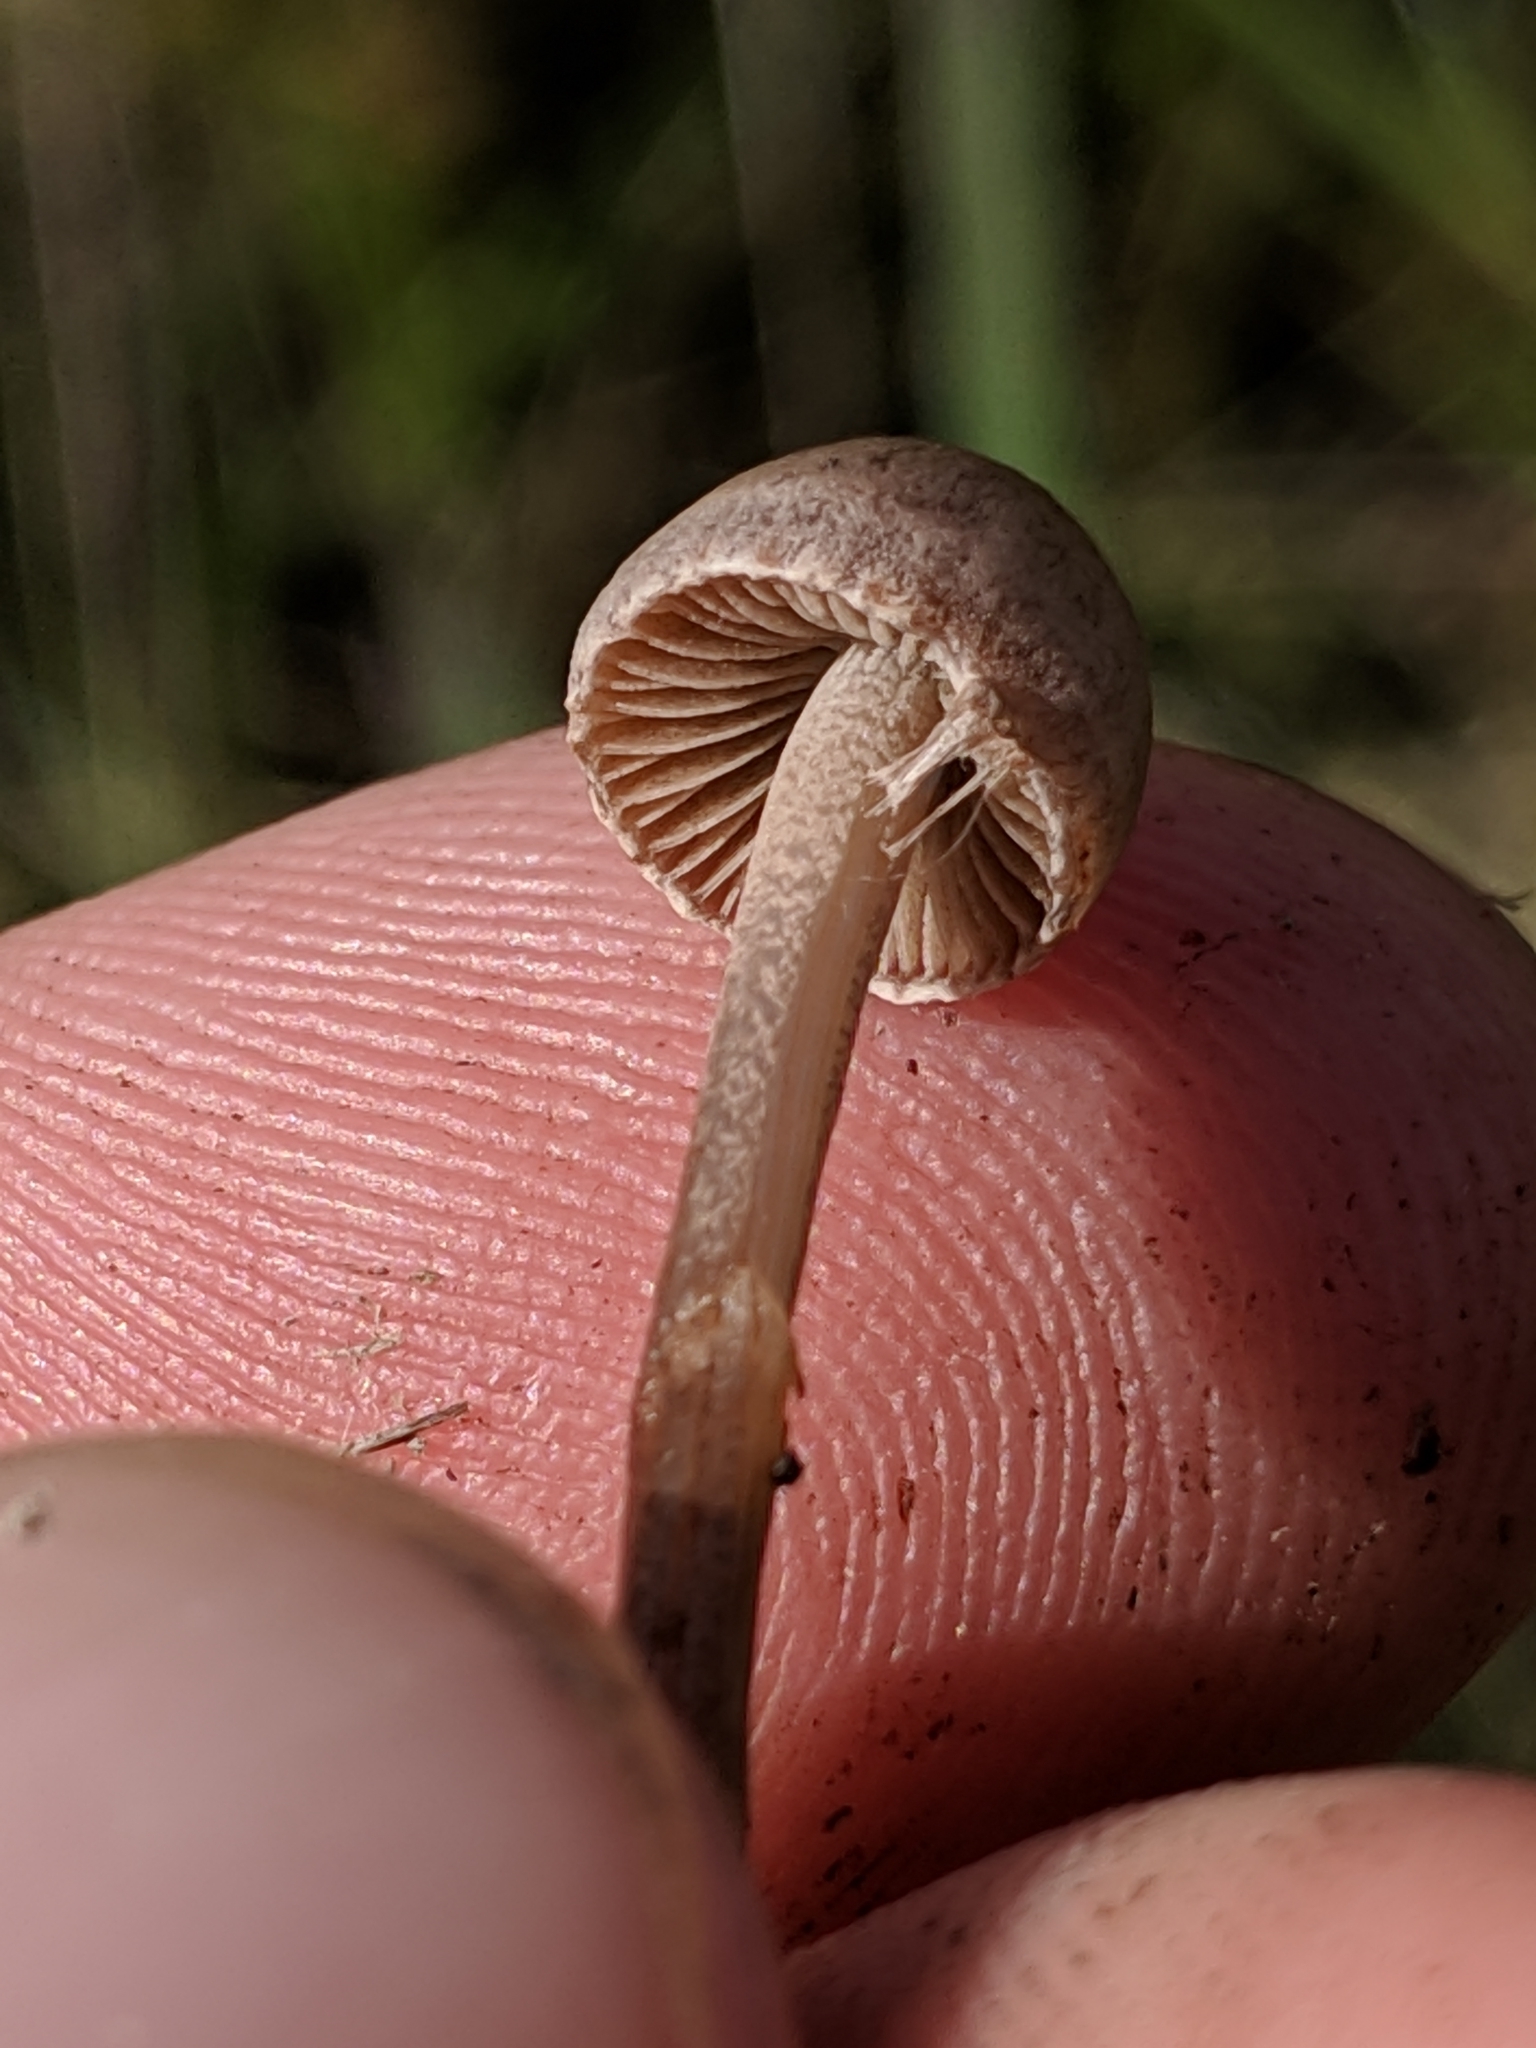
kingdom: Fungi
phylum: Basidiomycota
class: Agaricomycetes
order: Agaricales
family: Bolbitiaceae
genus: Panaeolus
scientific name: Panaeolus papilionaceus
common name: Petticoat mottlegill
